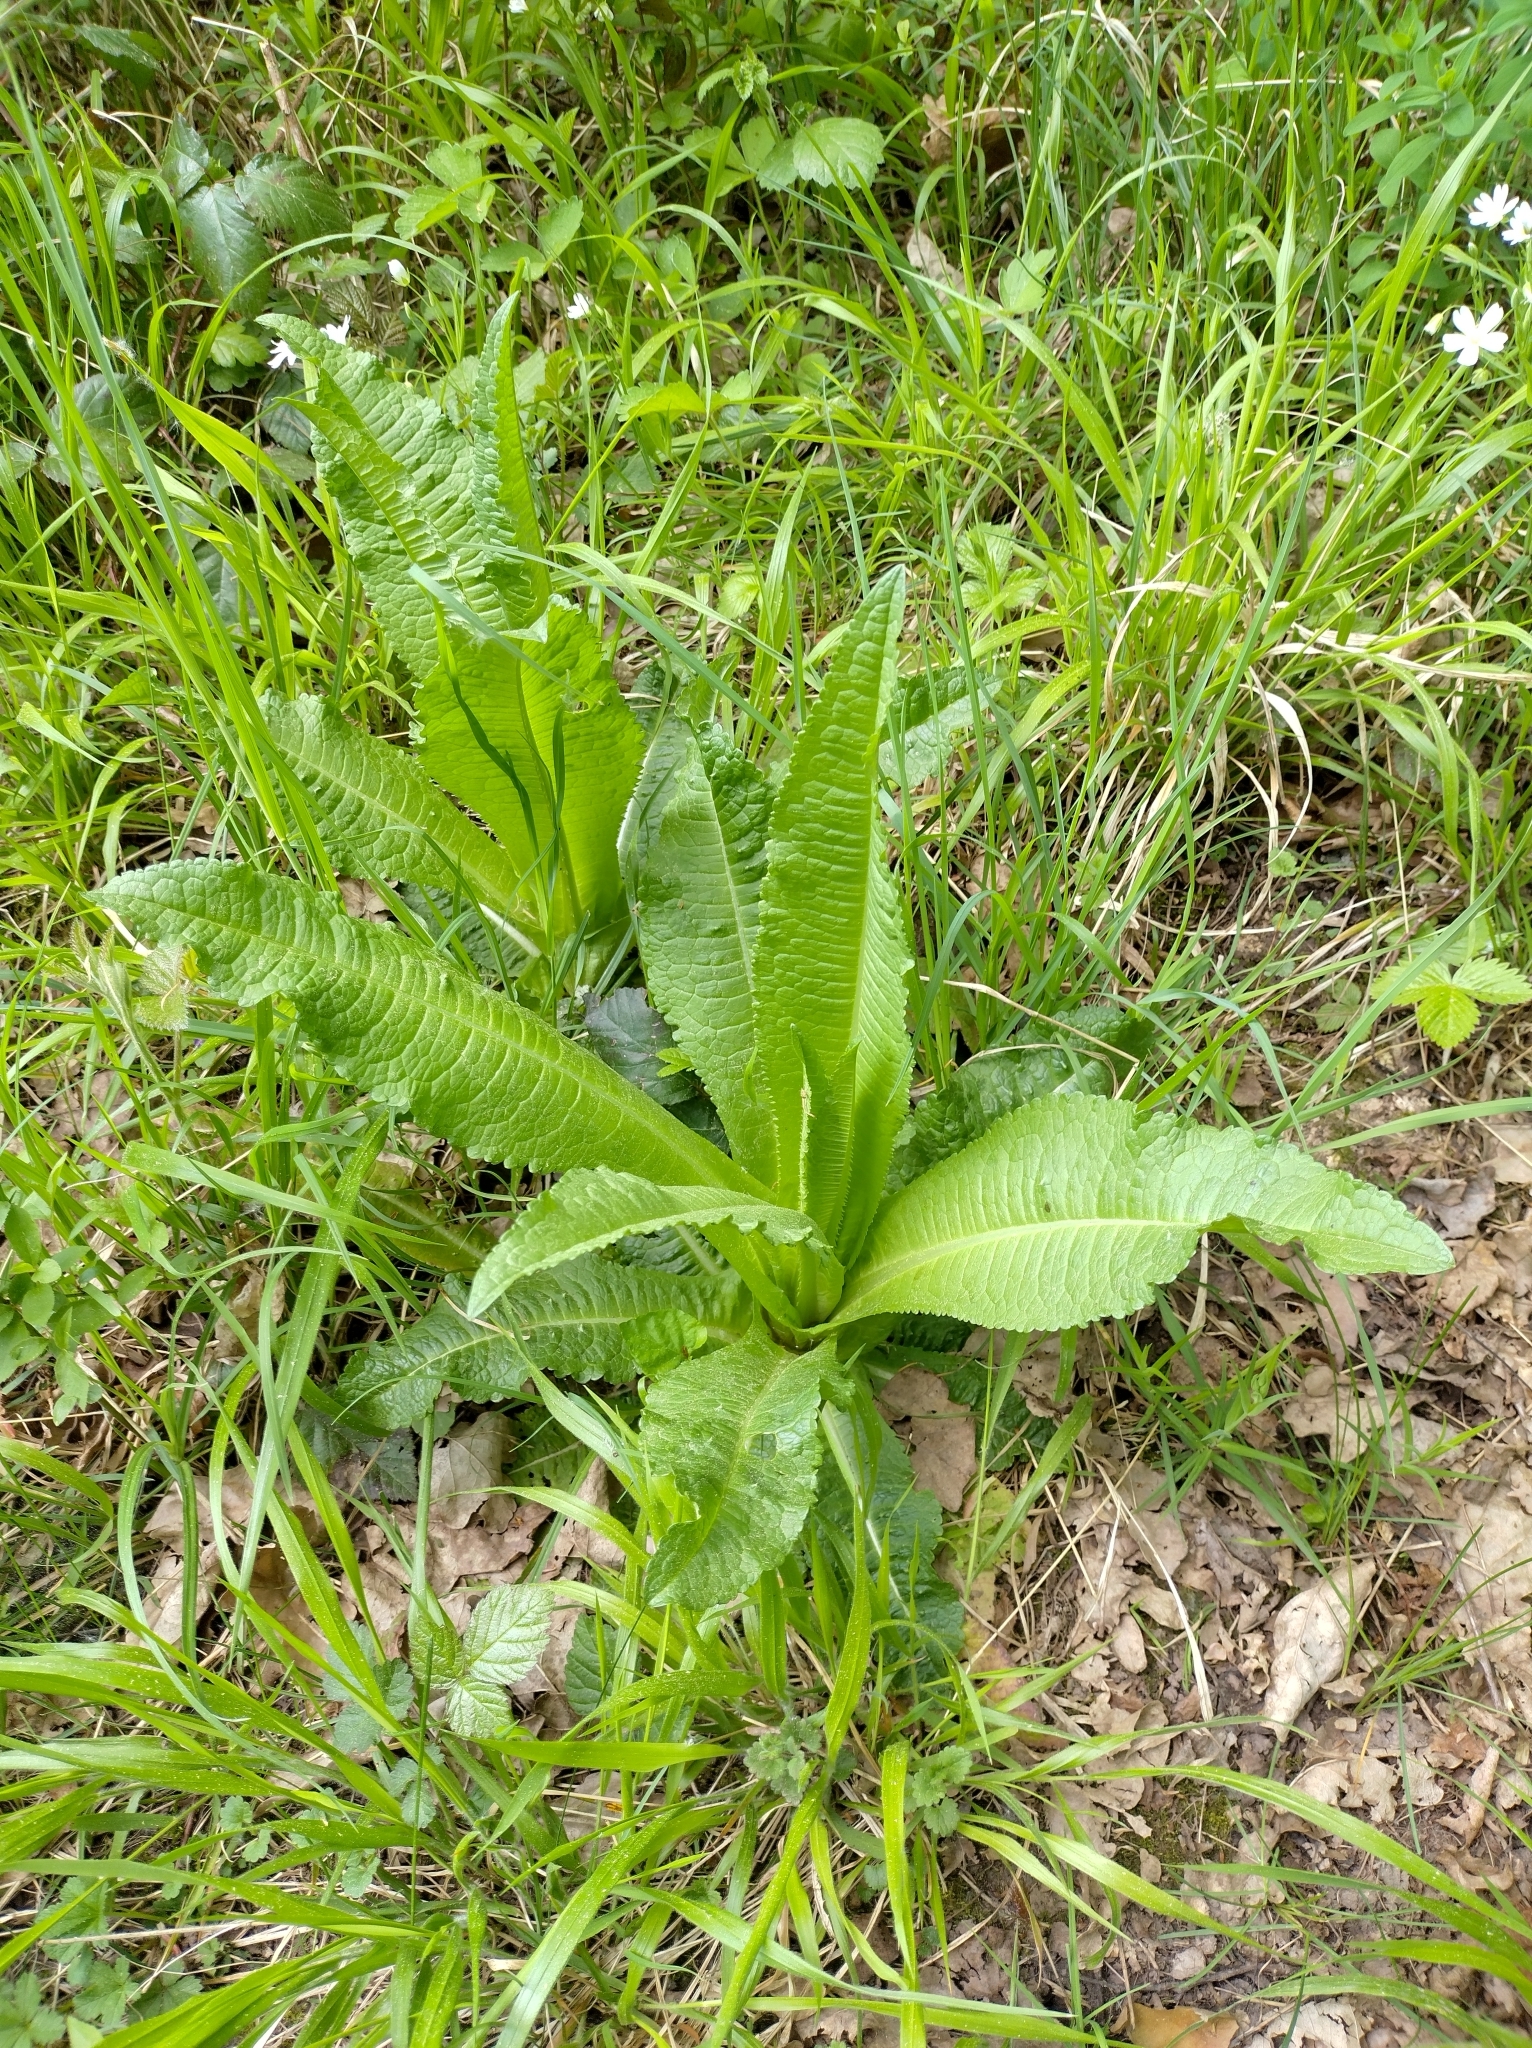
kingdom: Plantae
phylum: Tracheophyta
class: Magnoliopsida
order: Dipsacales
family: Caprifoliaceae
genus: Dipsacus
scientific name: Dipsacus fullonum
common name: Teasel
